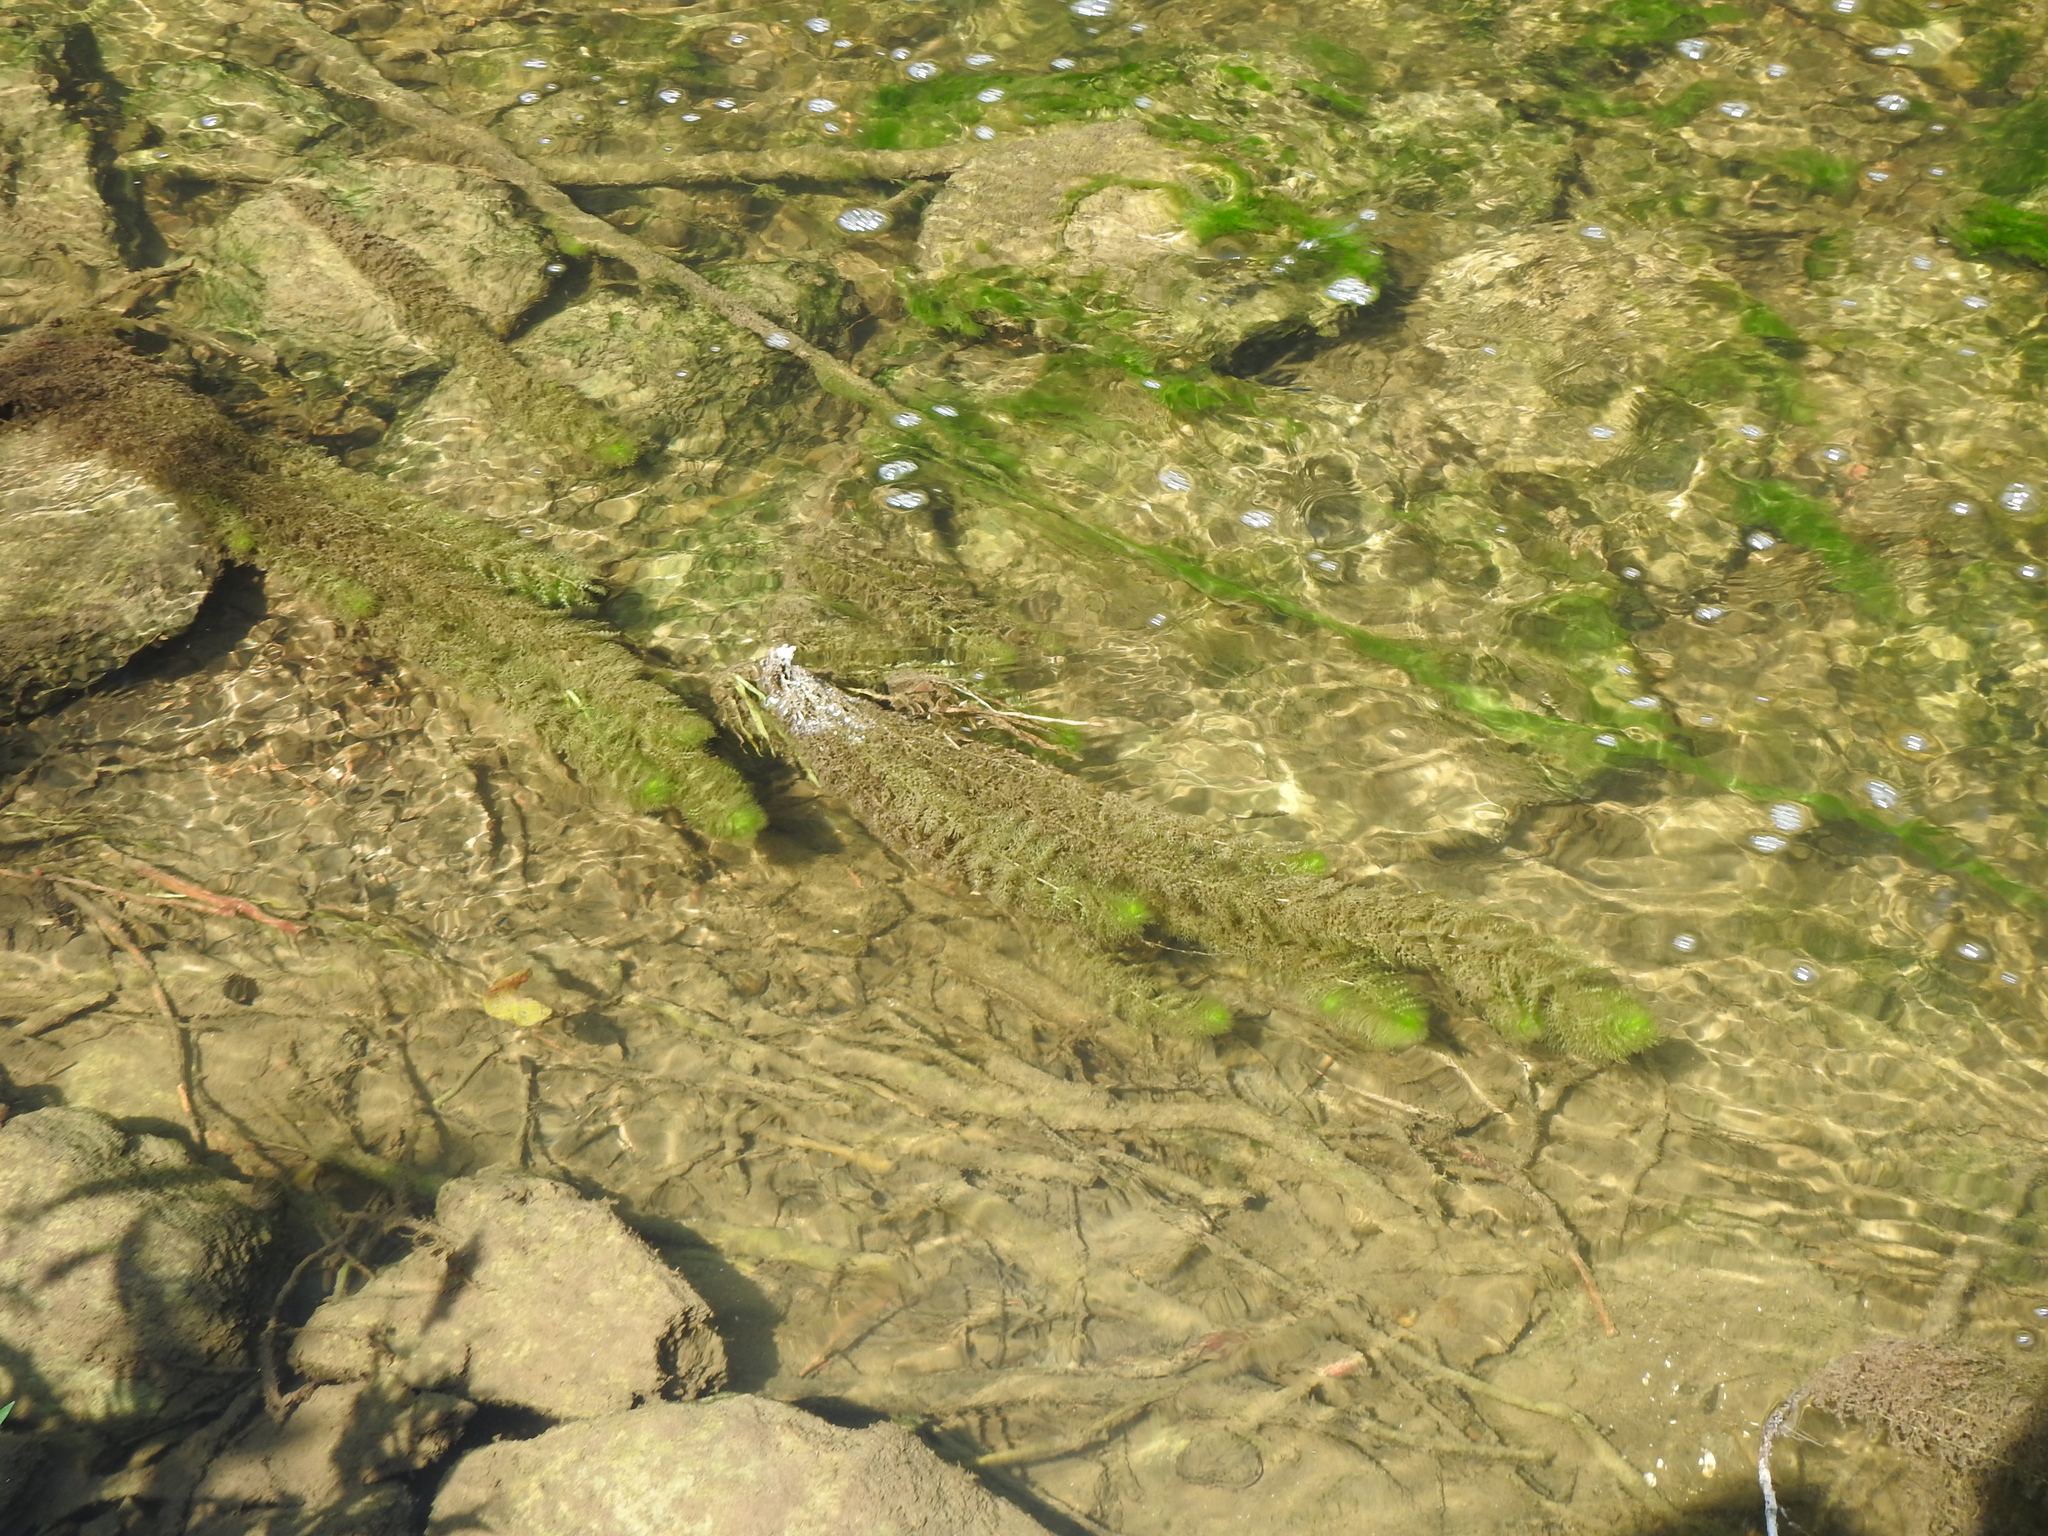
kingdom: Plantae
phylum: Tracheophyta
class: Magnoliopsida
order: Lamiales
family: Lentibulariaceae
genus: Utricularia
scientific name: Utricularia macrorhiza
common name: Common bladderwort
